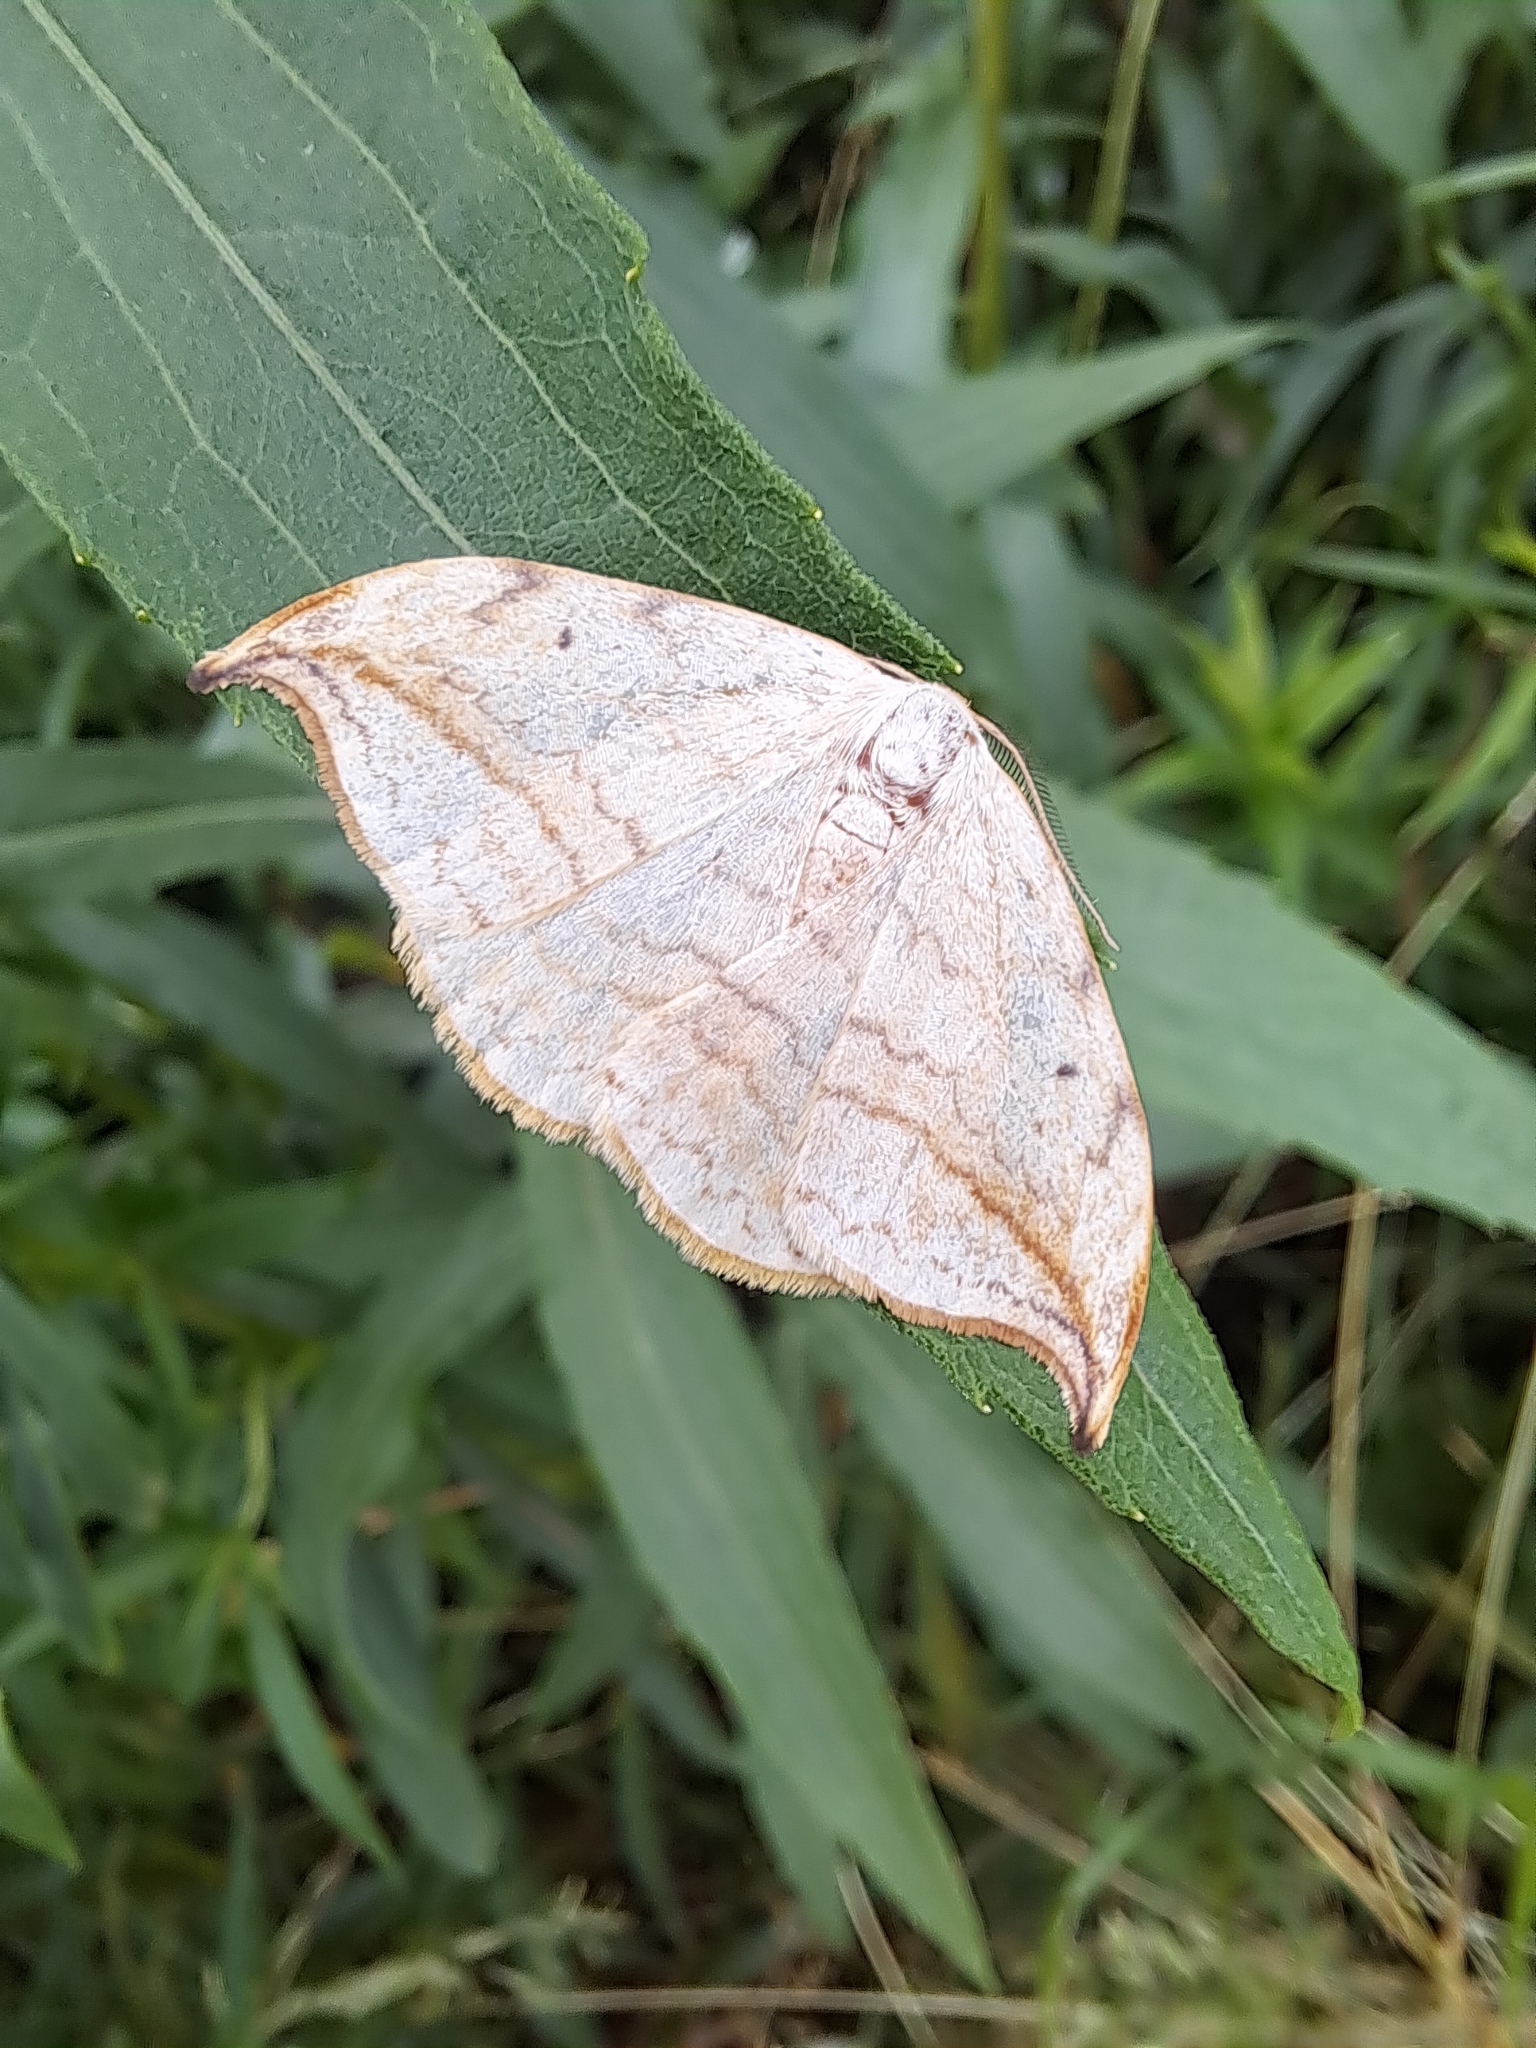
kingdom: Animalia
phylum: Arthropoda
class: Insecta
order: Lepidoptera
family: Drepanidae
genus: Drepana
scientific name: Drepana arcuata
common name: Arched hooktip moth
